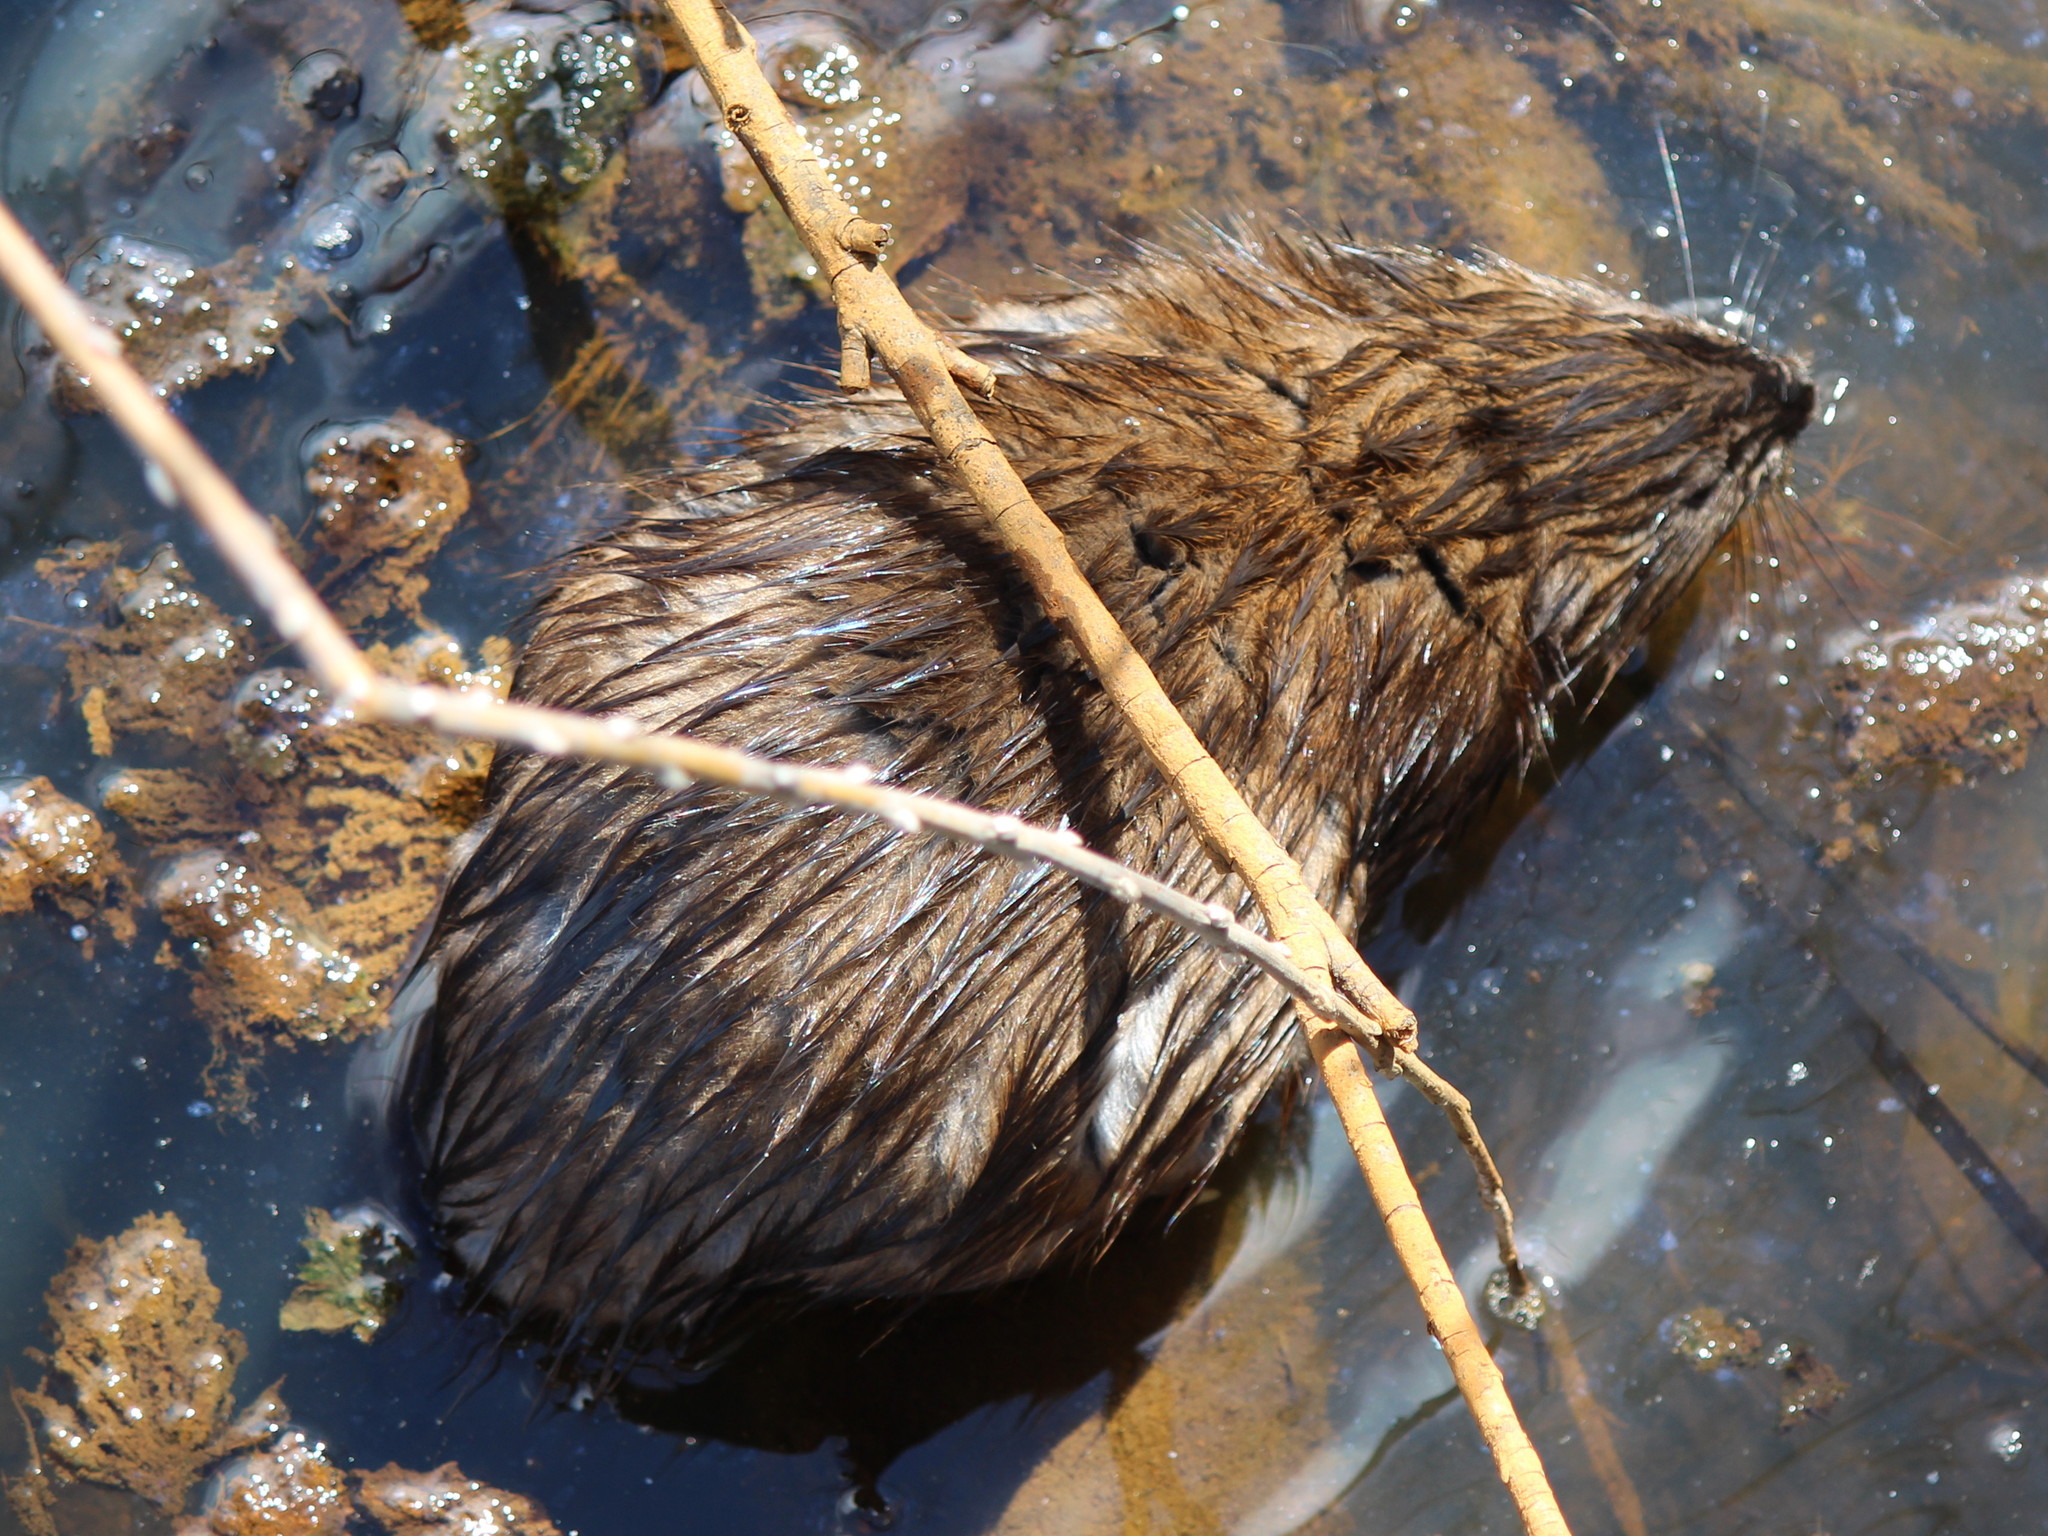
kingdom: Animalia
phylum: Chordata
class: Mammalia
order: Rodentia
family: Cricetidae
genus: Ondatra
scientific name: Ondatra zibethicus
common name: Muskrat
